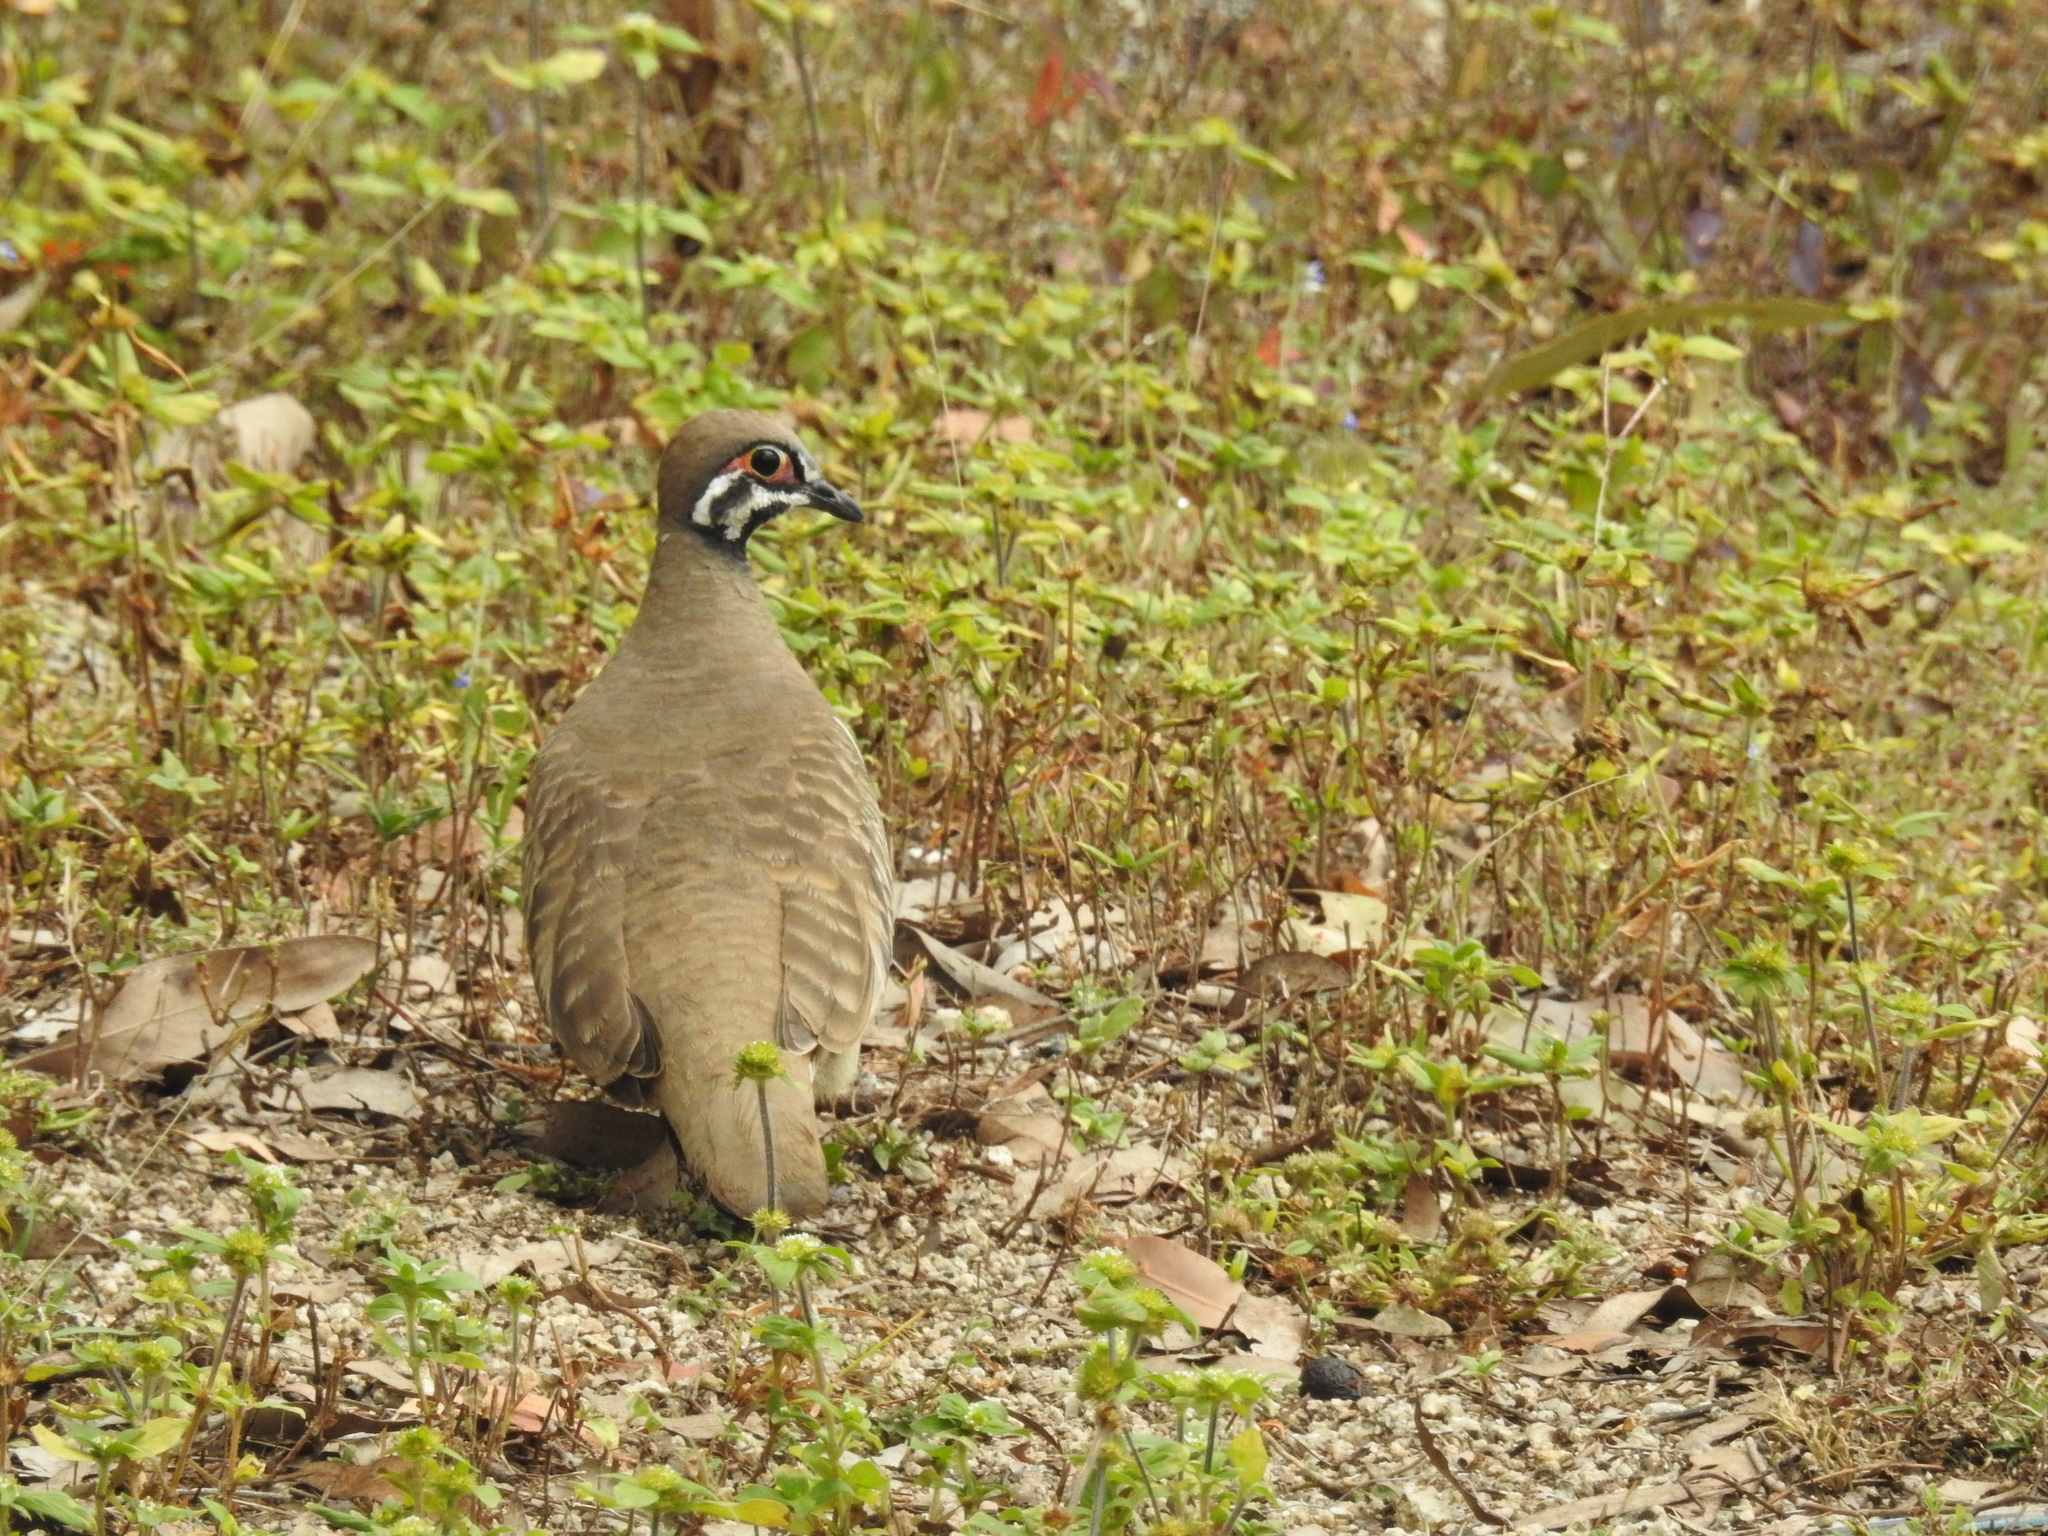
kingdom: Animalia
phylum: Chordata
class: Aves
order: Columbiformes
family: Columbidae
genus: Geophaps
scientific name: Geophaps scripta
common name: Squatter pigeon
